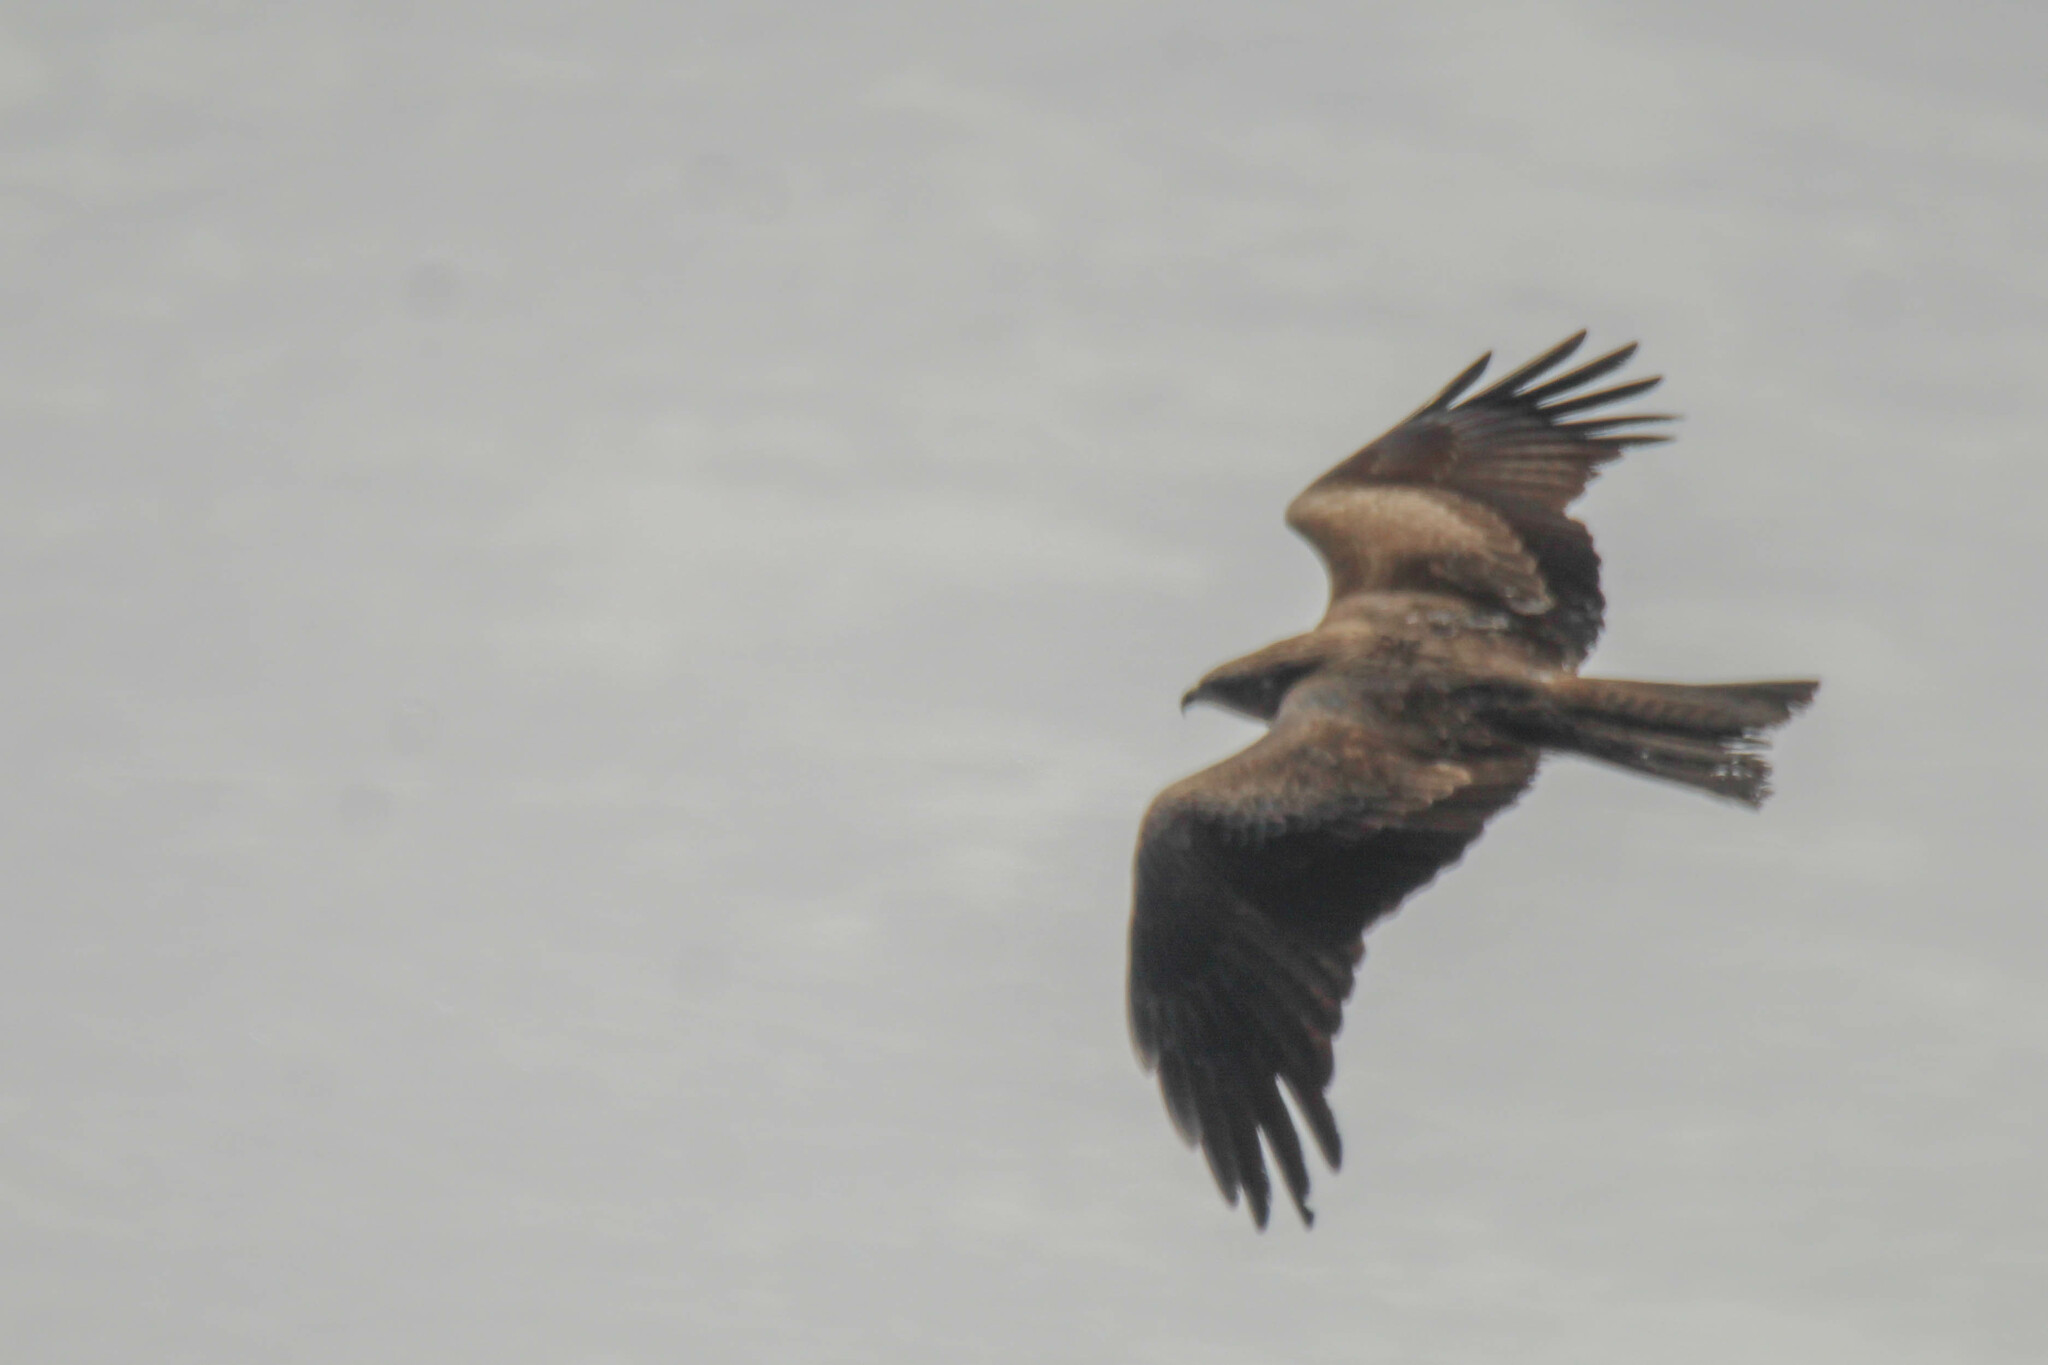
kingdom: Animalia
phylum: Chordata
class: Aves
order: Accipitriformes
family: Accipitridae
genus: Milvus
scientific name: Milvus migrans
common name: Black kite
